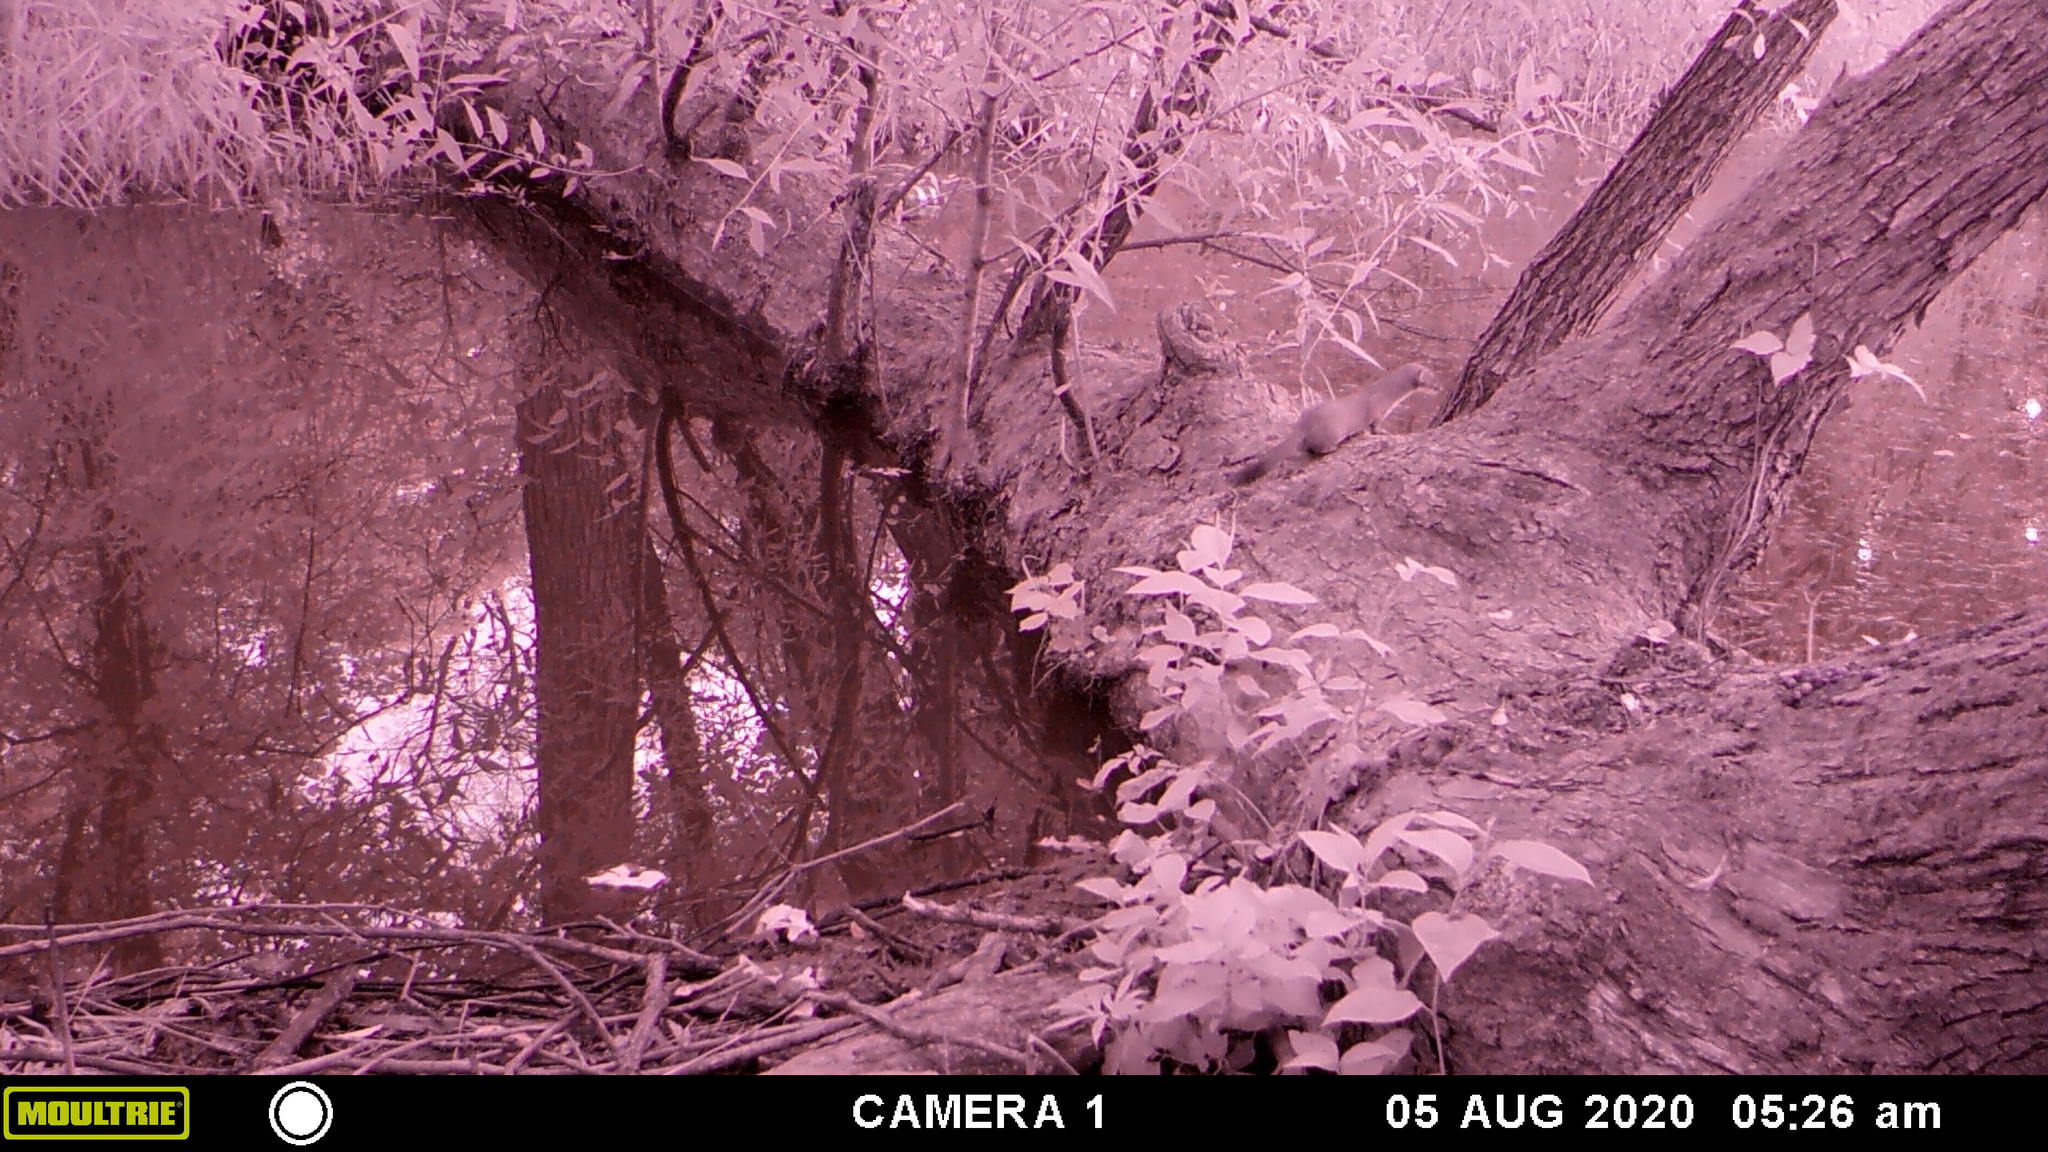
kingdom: Animalia
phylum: Chordata
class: Mammalia
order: Carnivora
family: Mustelidae
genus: Mustela
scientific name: Mustela
